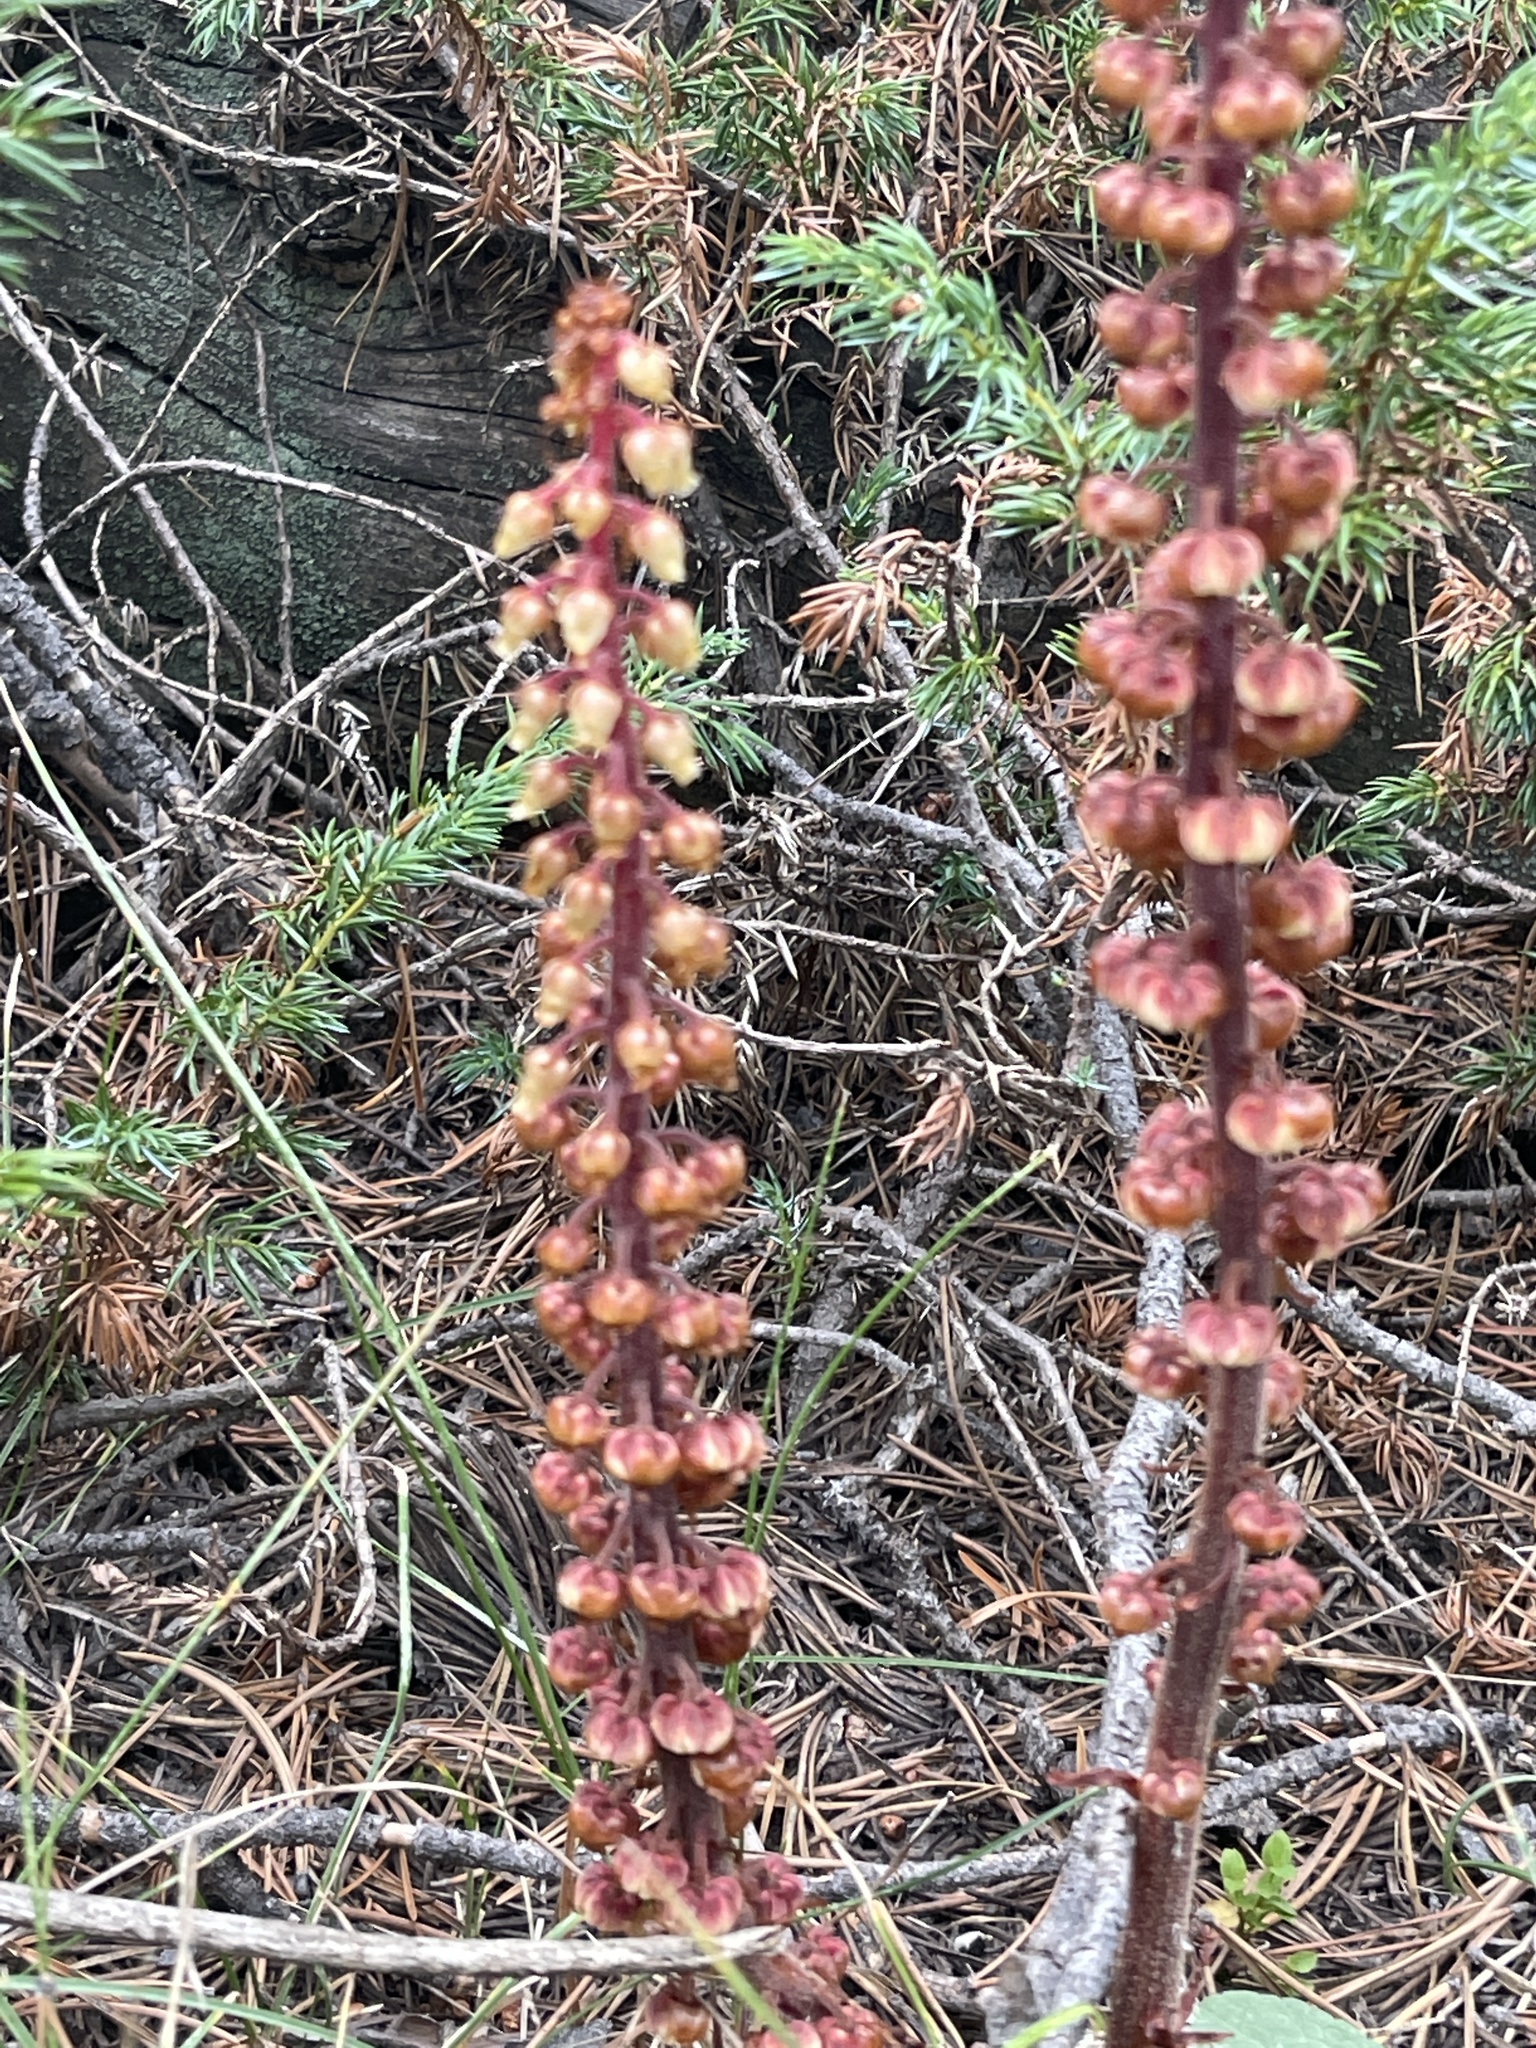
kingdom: Plantae
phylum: Tracheophyta
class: Magnoliopsida
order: Ericales
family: Ericaceae
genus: Pterospora
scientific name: Pterospora andromedea
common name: Giant bird's-nest
